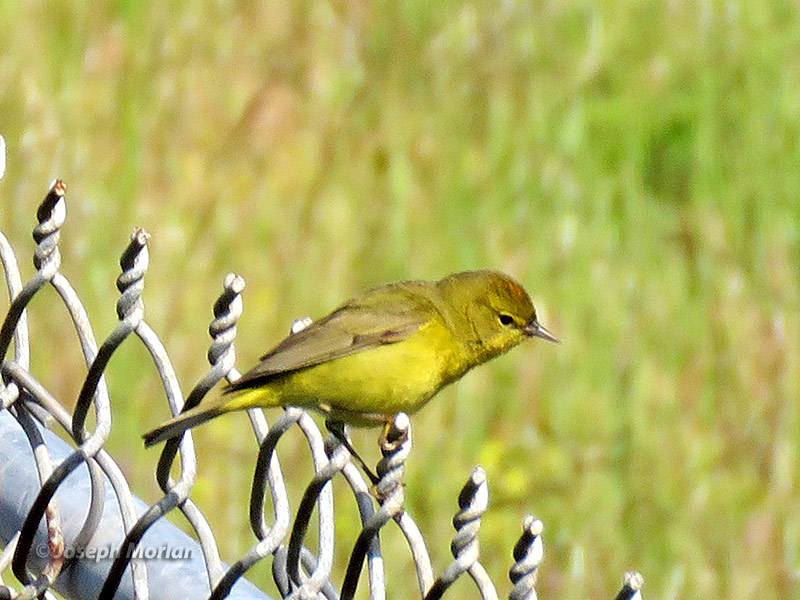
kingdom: Animalia
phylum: Chordata
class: Aves
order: Passeriformes
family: Parulidae
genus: Leiothlypis
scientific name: Leiothlypis celata
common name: Orange-crowned warbler
